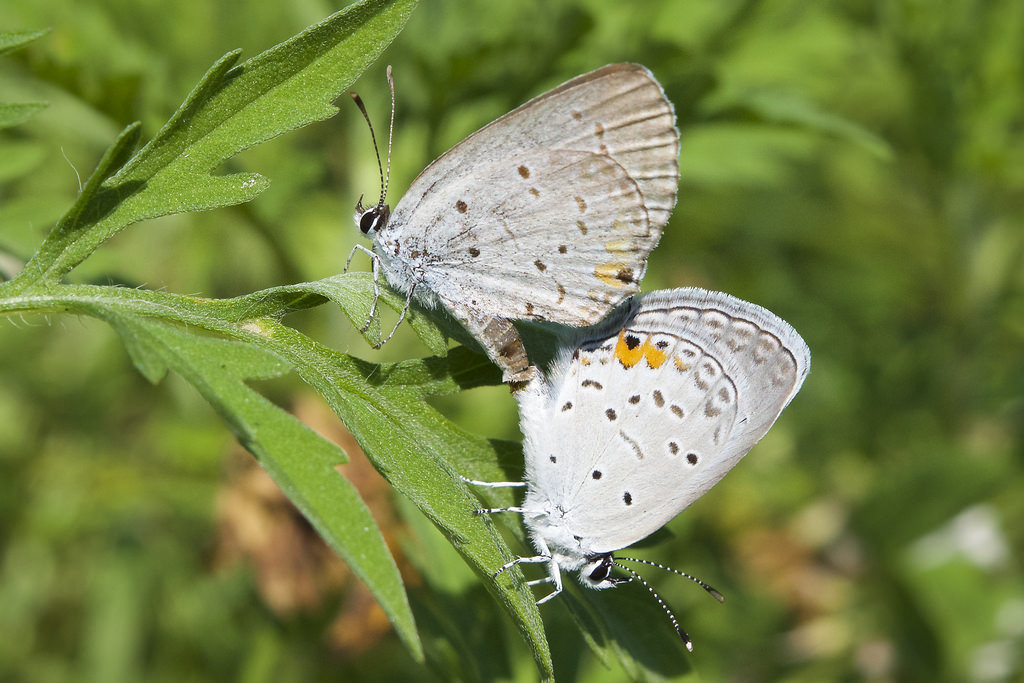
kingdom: Animalia
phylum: Arthropoda
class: Insecta
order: Lepidoptera
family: Lycaenidae
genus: Elkalyce
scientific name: Elkalyce comyntas
